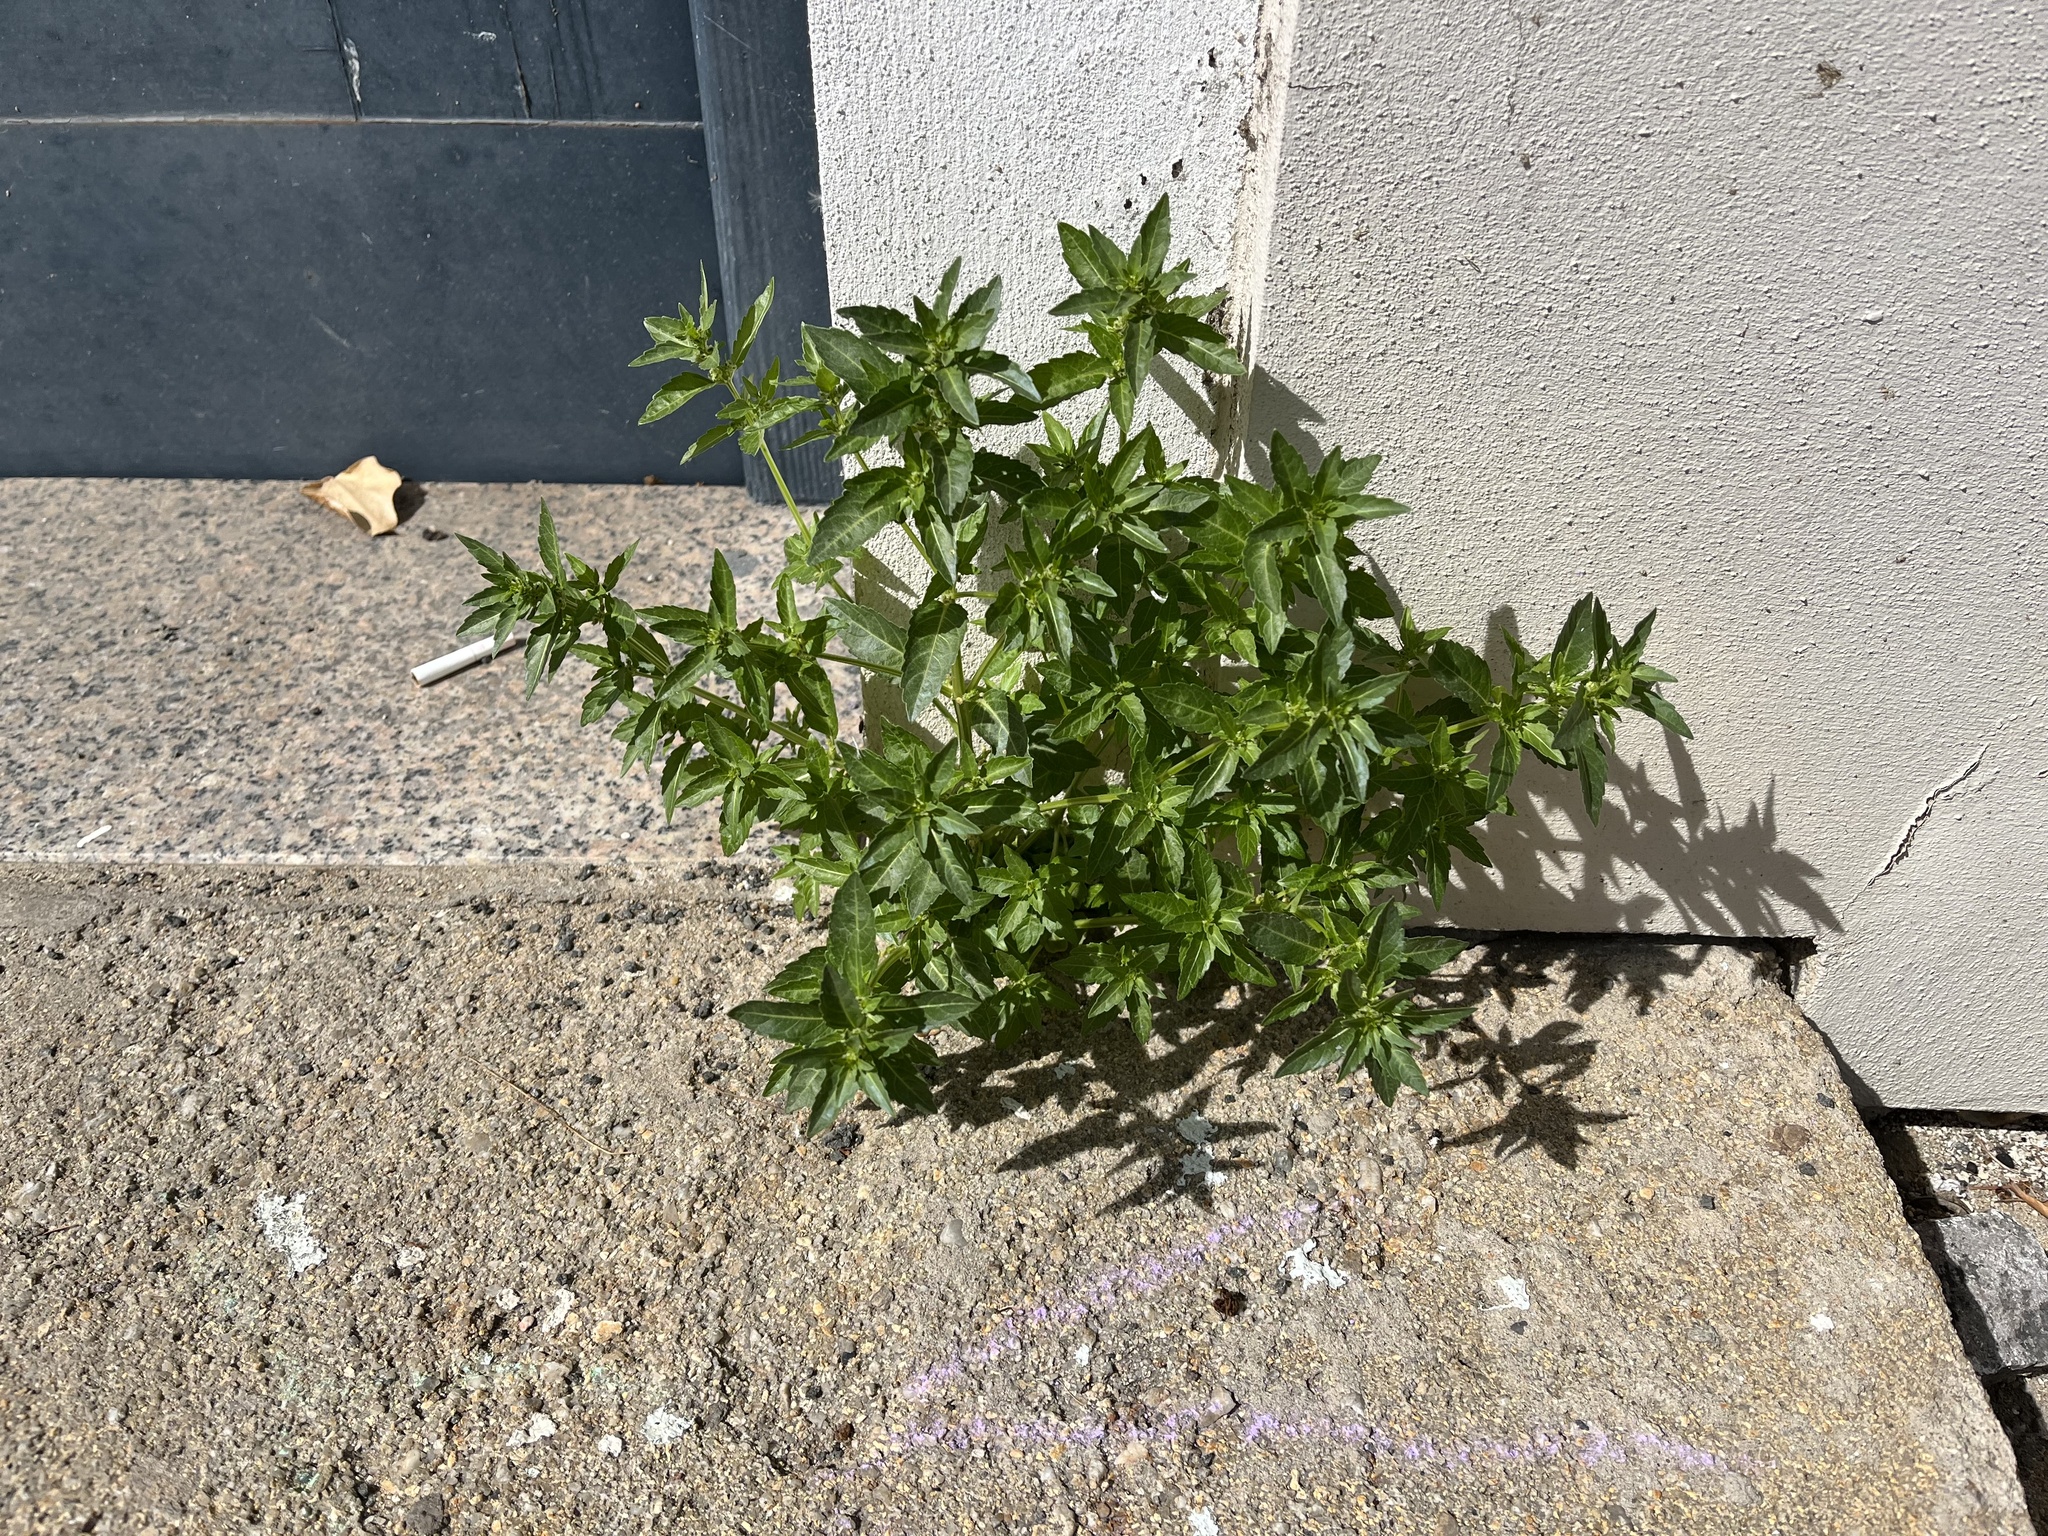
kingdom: Plantae
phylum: Tracheophyta
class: Magnoliopsida
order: Malpighiales
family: Euphorbiaceae
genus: Mercurialis
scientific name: Mercurialis annua
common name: Annual mercury
